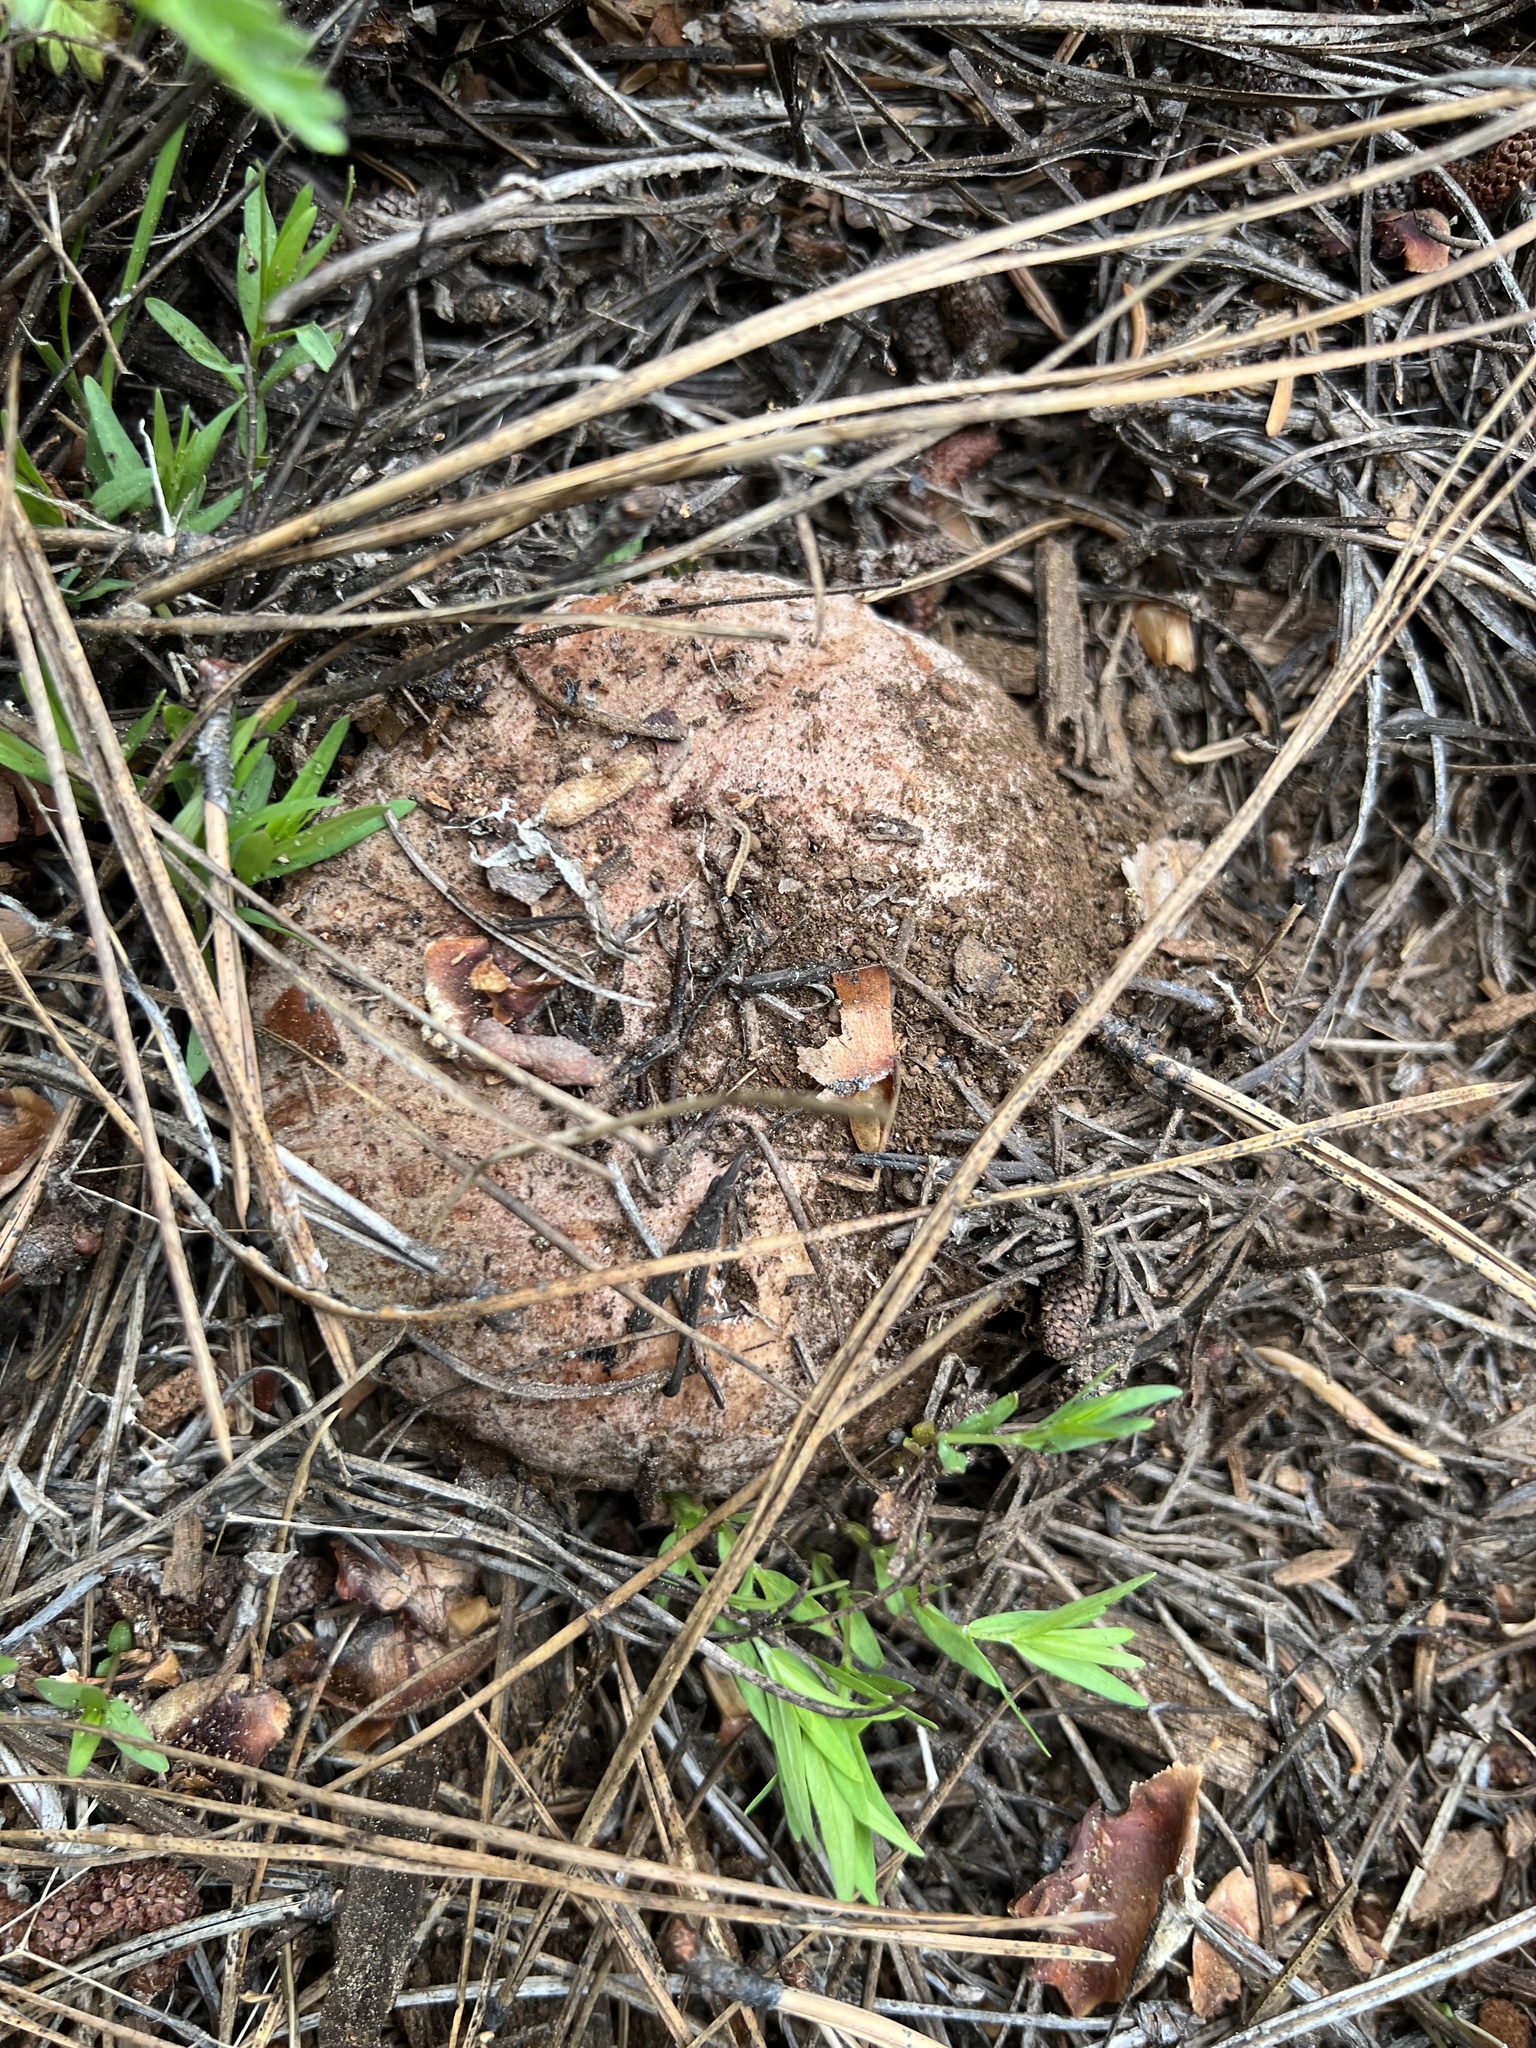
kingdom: Fungi
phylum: Basidiomycota
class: Agaricomycetes
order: Boletales
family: Boletaceae
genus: Boletus
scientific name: Boletus rex-veris
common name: Spring king
